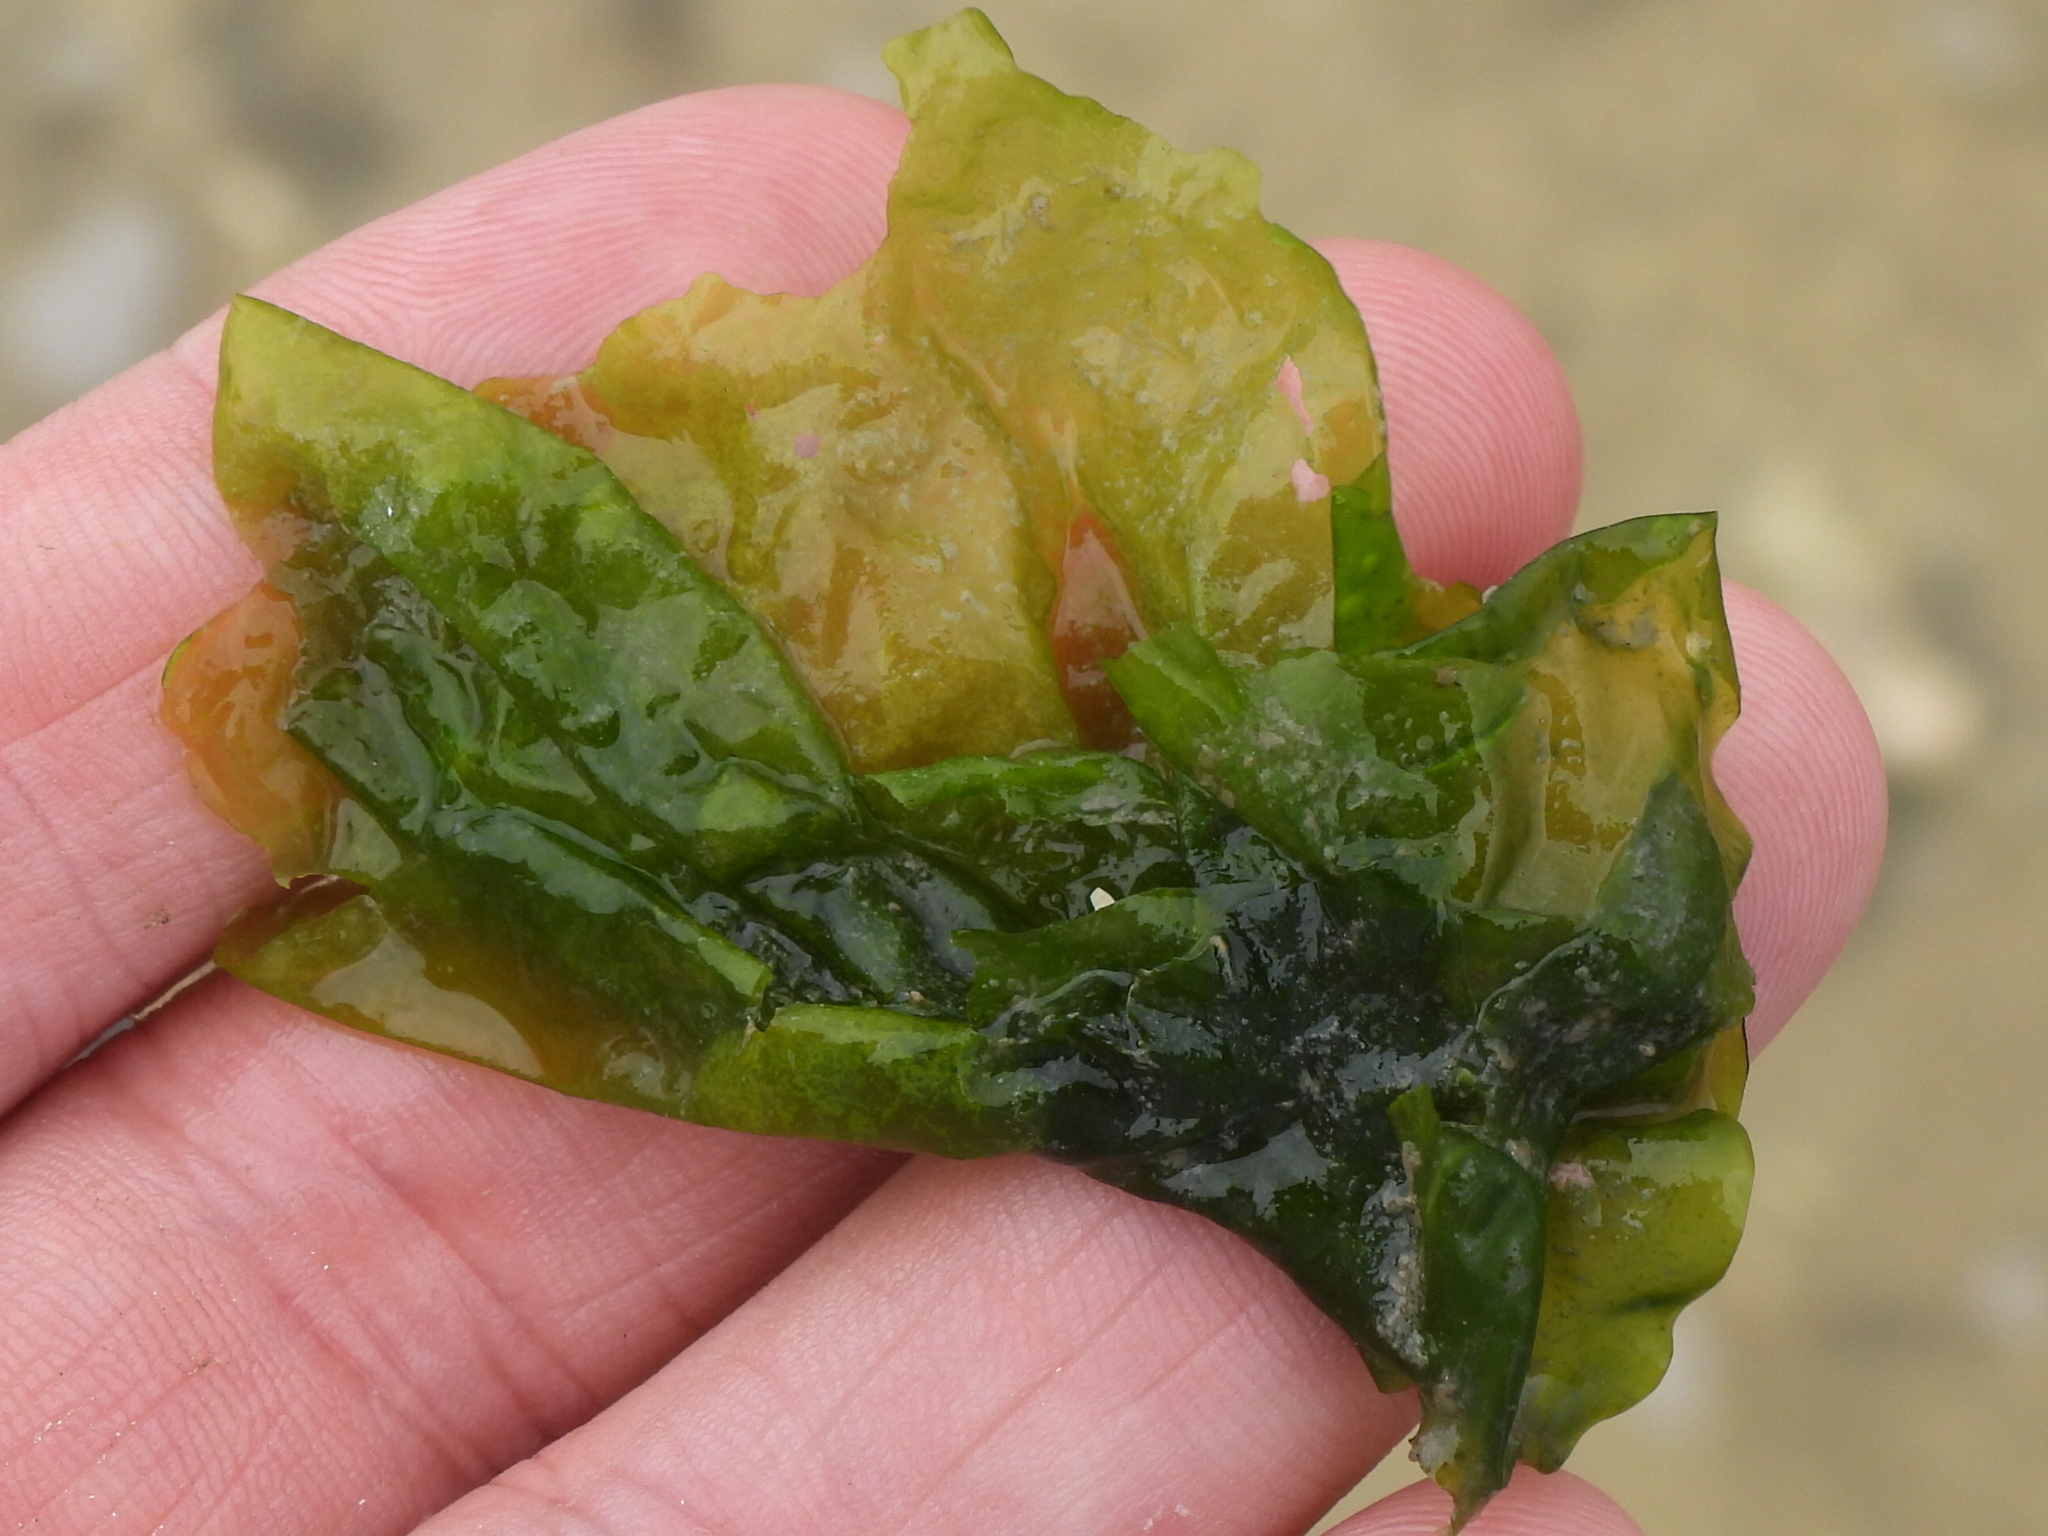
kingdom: Plantae
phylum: Chlorophyta
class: Ulvophyceae
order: Ulvales
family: Ulvaceae
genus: Ulva
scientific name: Ulva lactuca
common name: Sea lettuce
